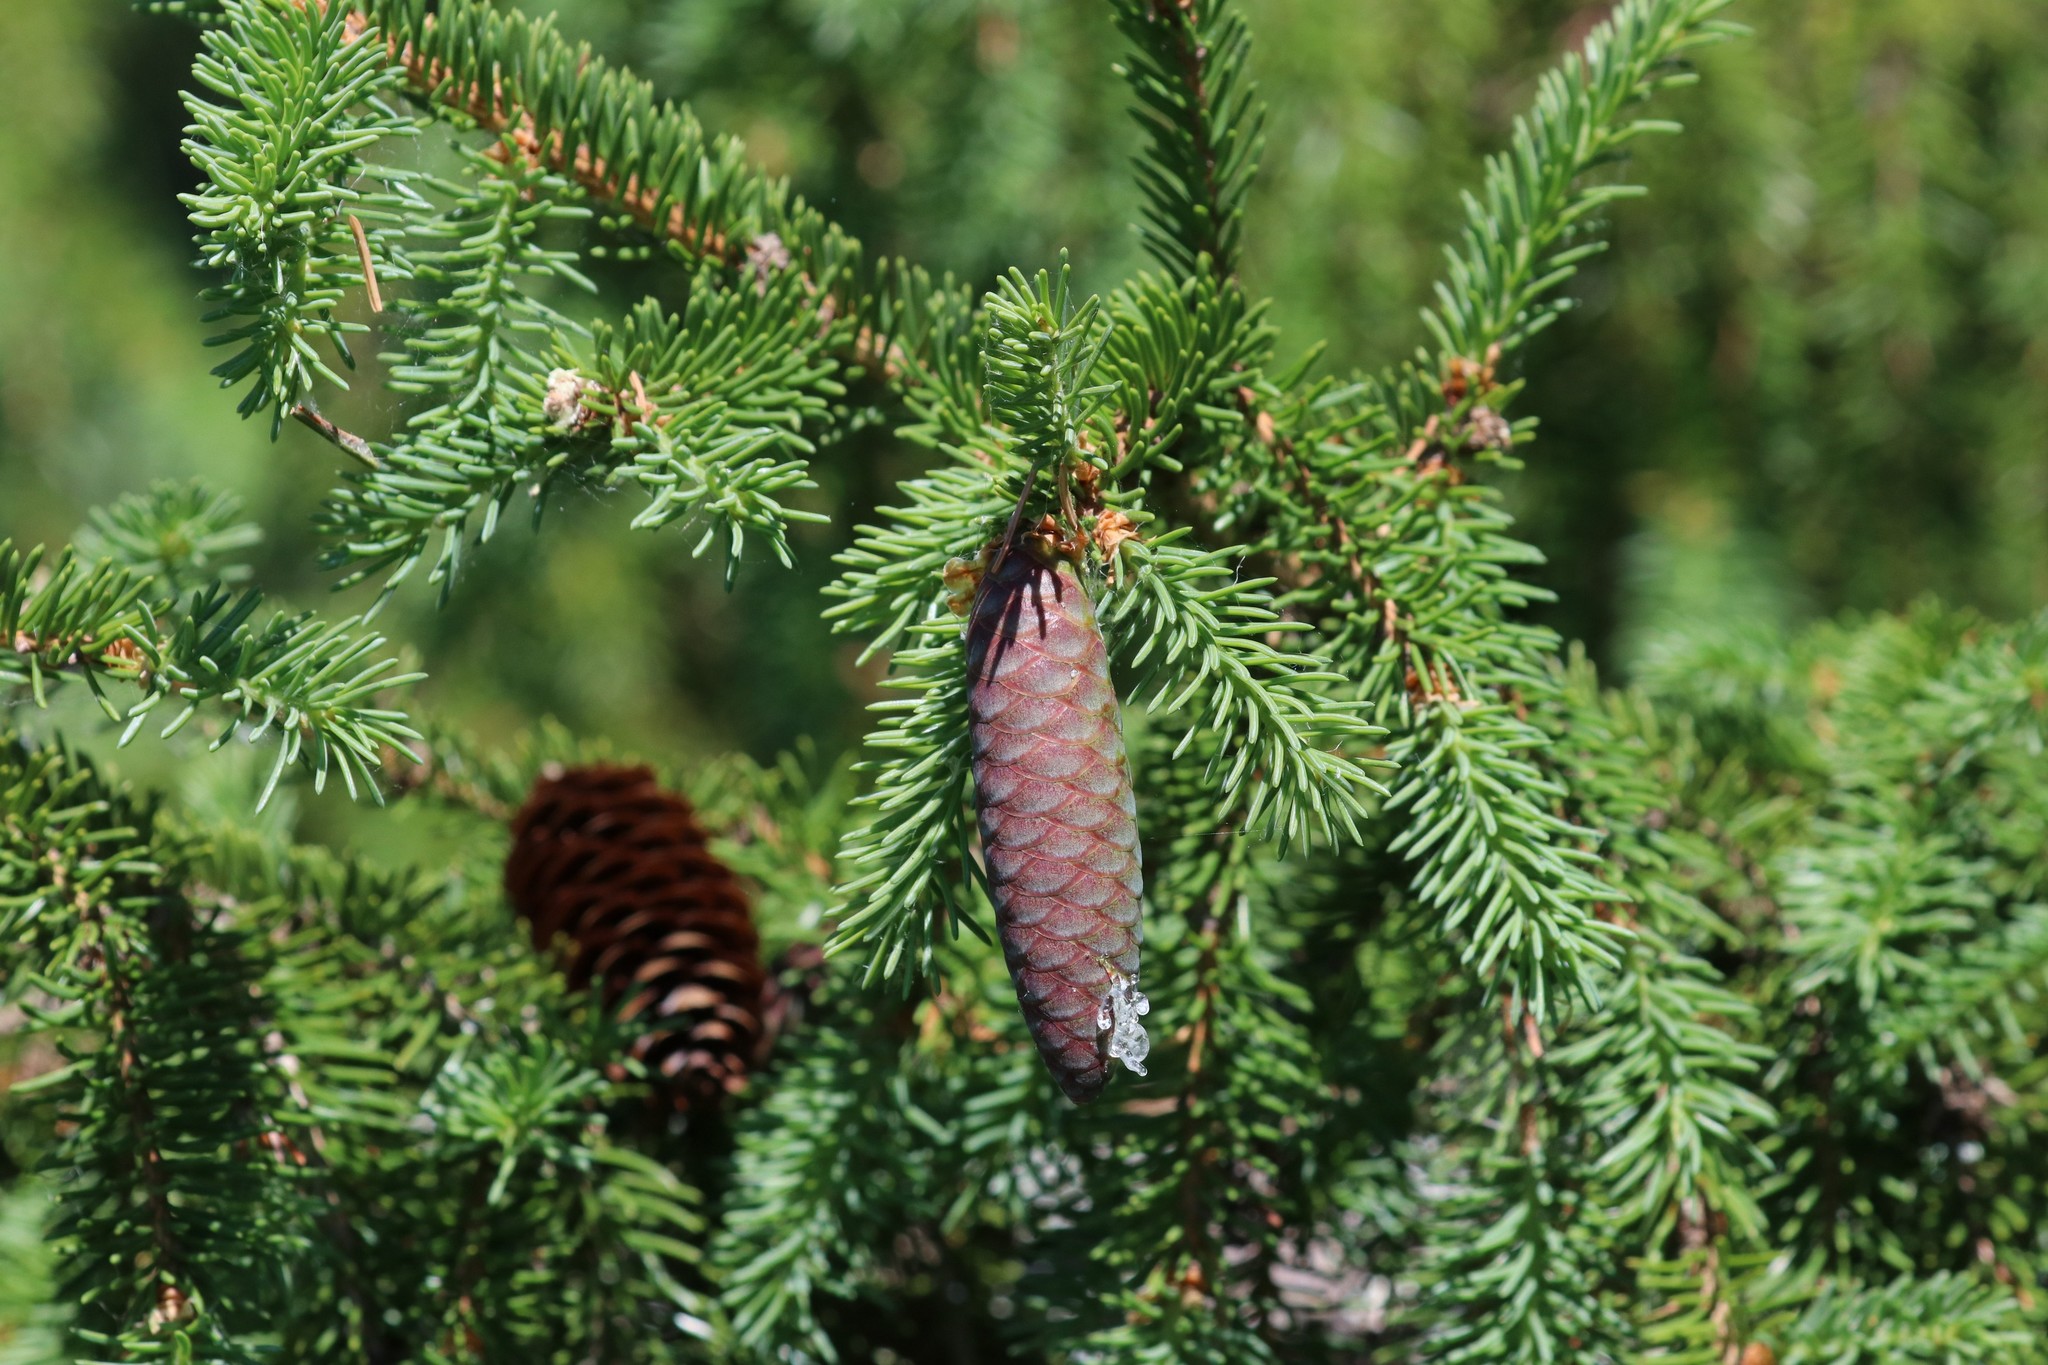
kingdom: Plantae
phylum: Tracheophyta
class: Pinopsida
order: Pinales
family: Pinaceae
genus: Picea
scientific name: Picea obovata
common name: Siberian spruce
